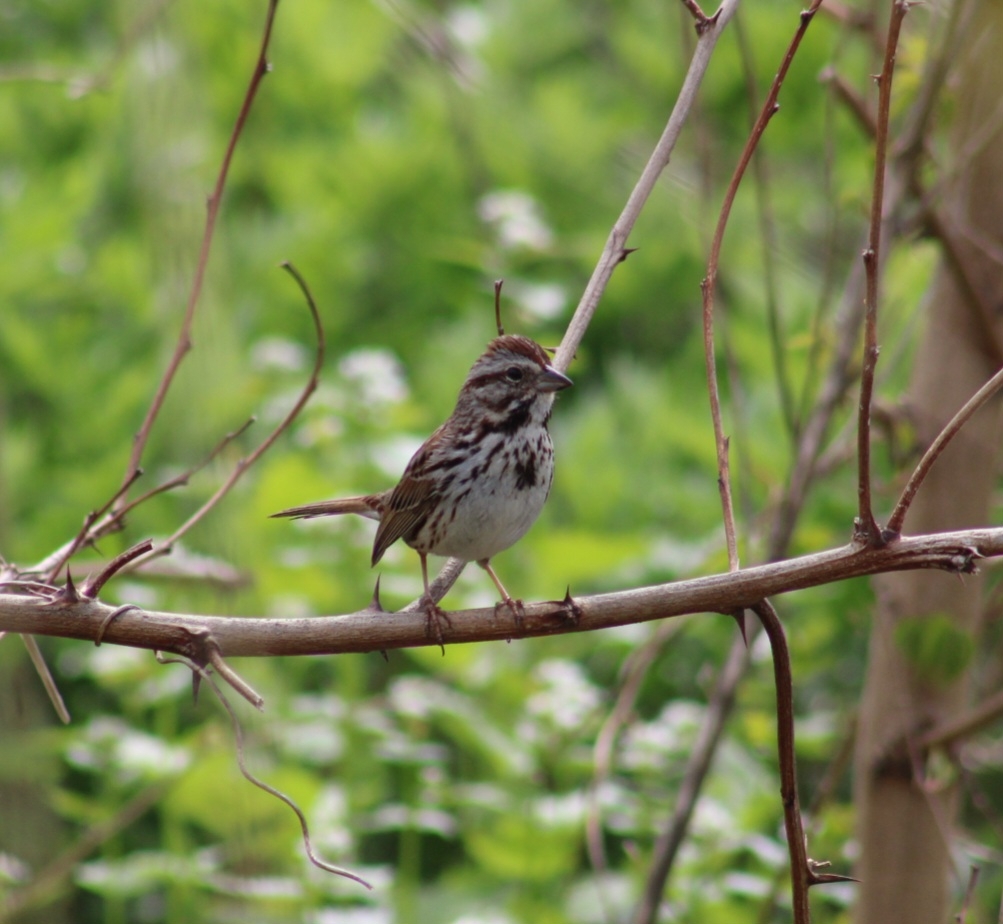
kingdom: Animalia
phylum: Chordata
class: Aves
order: Passeriformes
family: Passerellidae
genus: Melospiza
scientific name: Melospiza melodia
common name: Song sparrow
